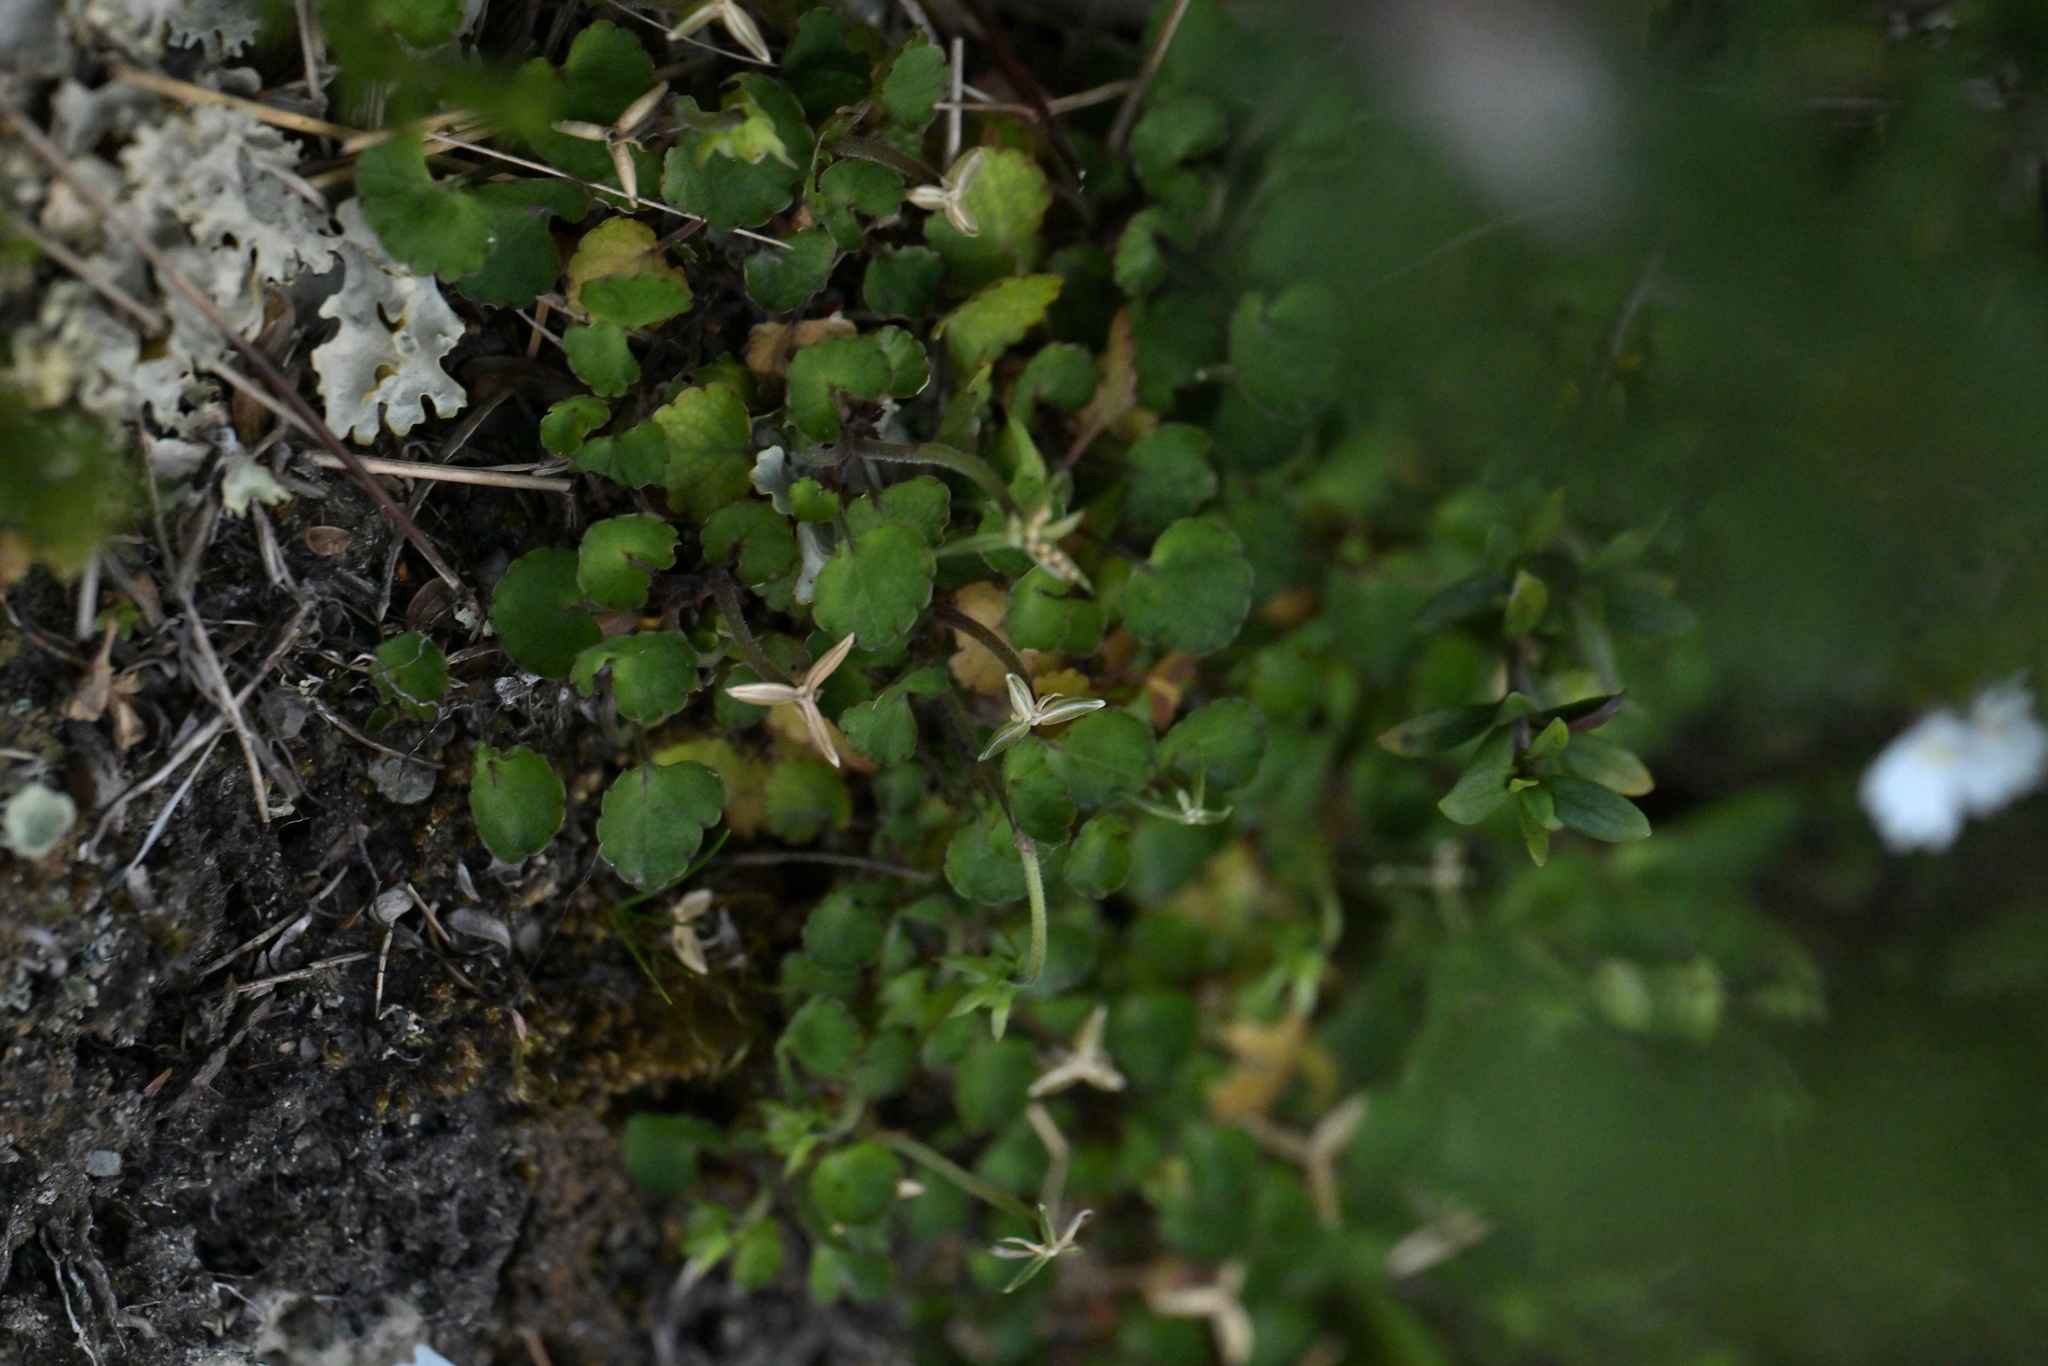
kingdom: Plantae
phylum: Tracheophyta
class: Magnoliopsida
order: Malpighiales
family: Violaceae
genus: Viola
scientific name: Viola filicaulis
